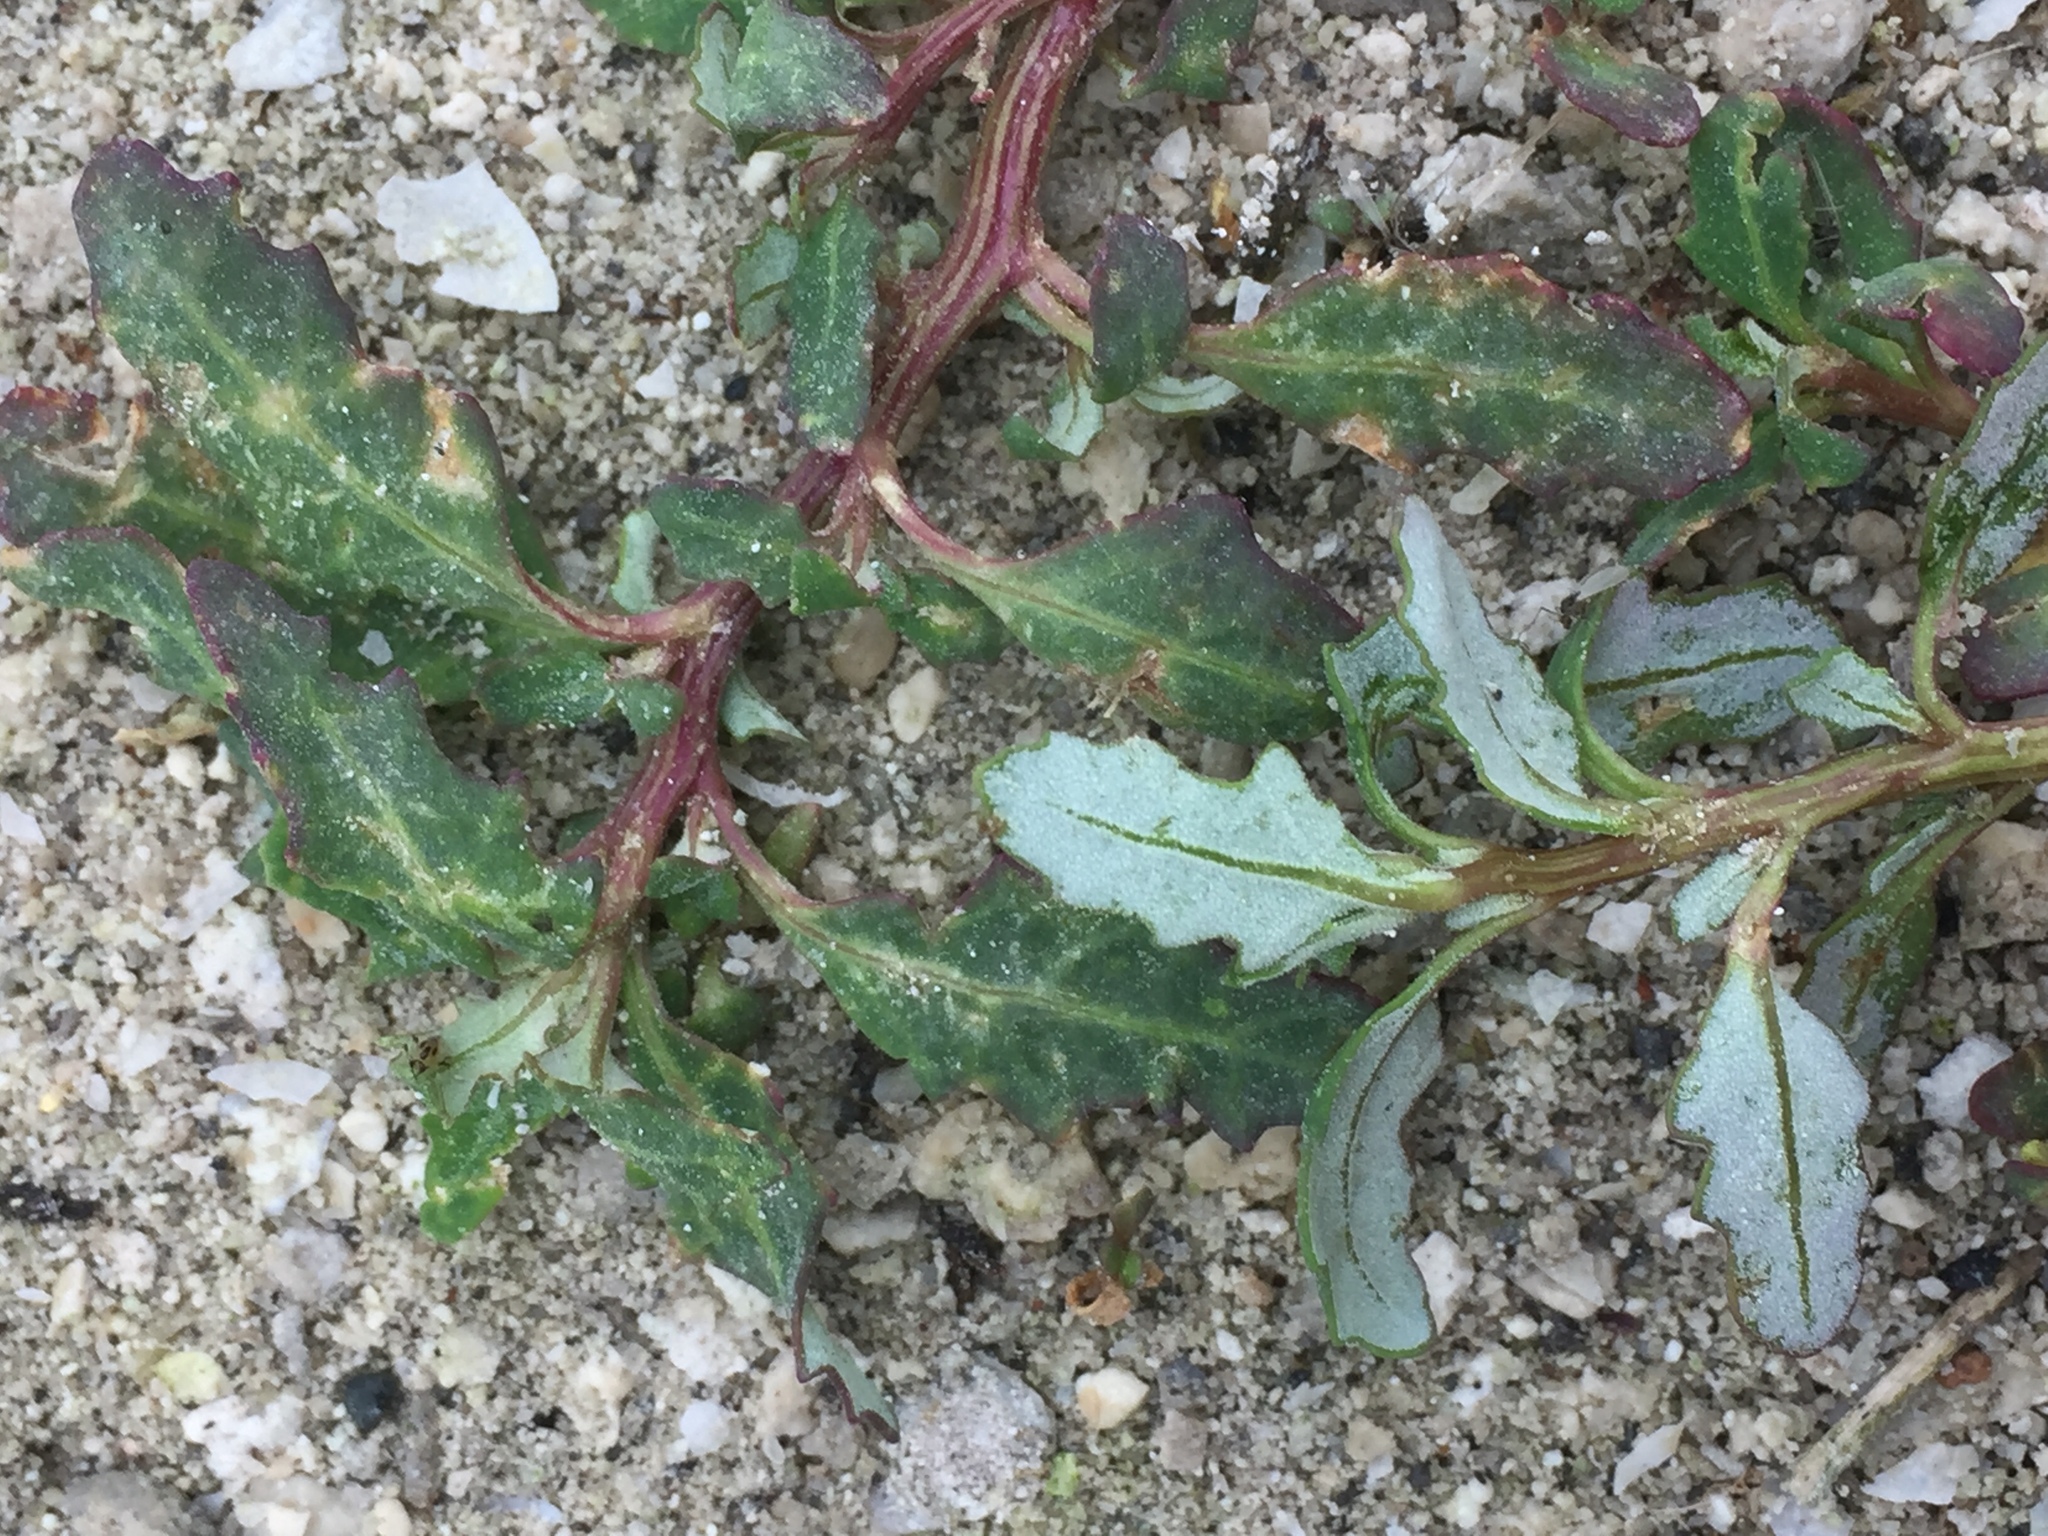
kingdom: Plantae
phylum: Tracheophyta
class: Magnoliopsida
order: Caryophyllales
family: Amaranthaceae
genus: Oxybasis
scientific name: Oxybasis glauca
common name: Glaucous goosefoot
